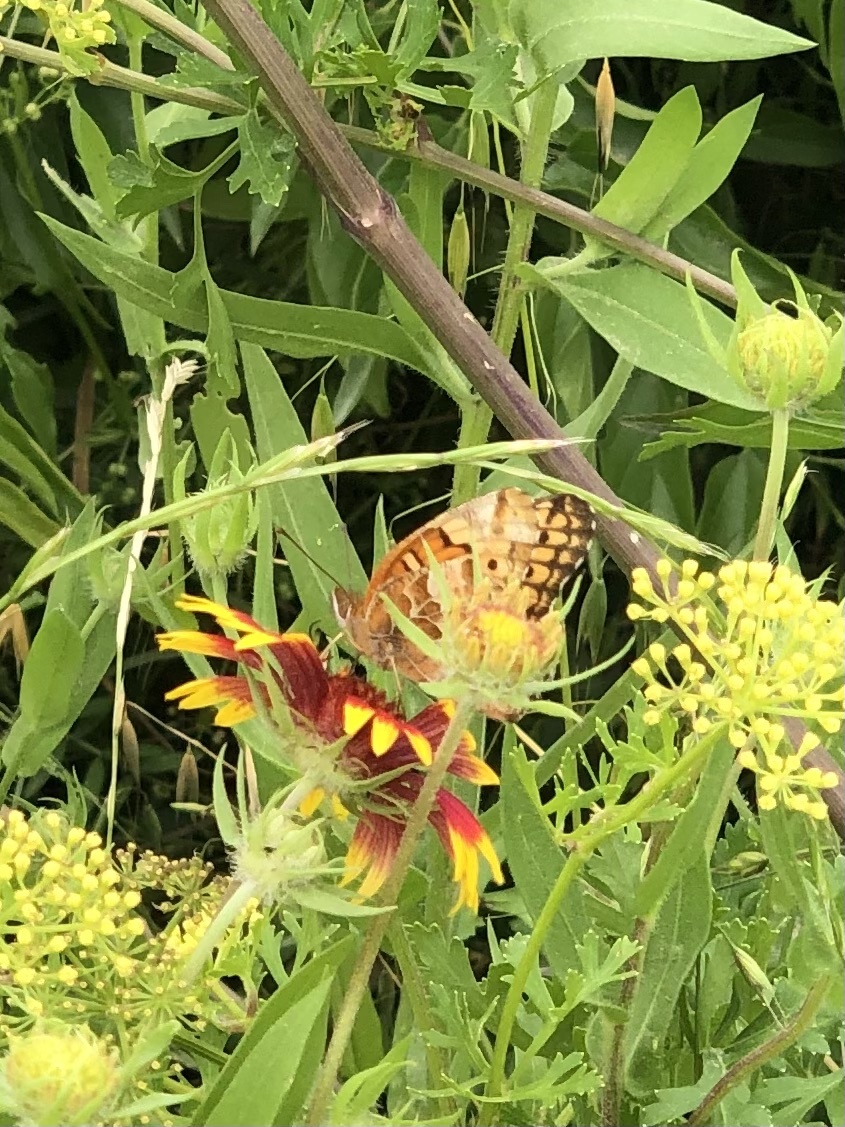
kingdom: Animalia
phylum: Arthropoda
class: Insecta
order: Lepidoptera
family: Nymphalidae
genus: Euptoieta
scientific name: Euptoieta claudia
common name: Variegated fritillary
